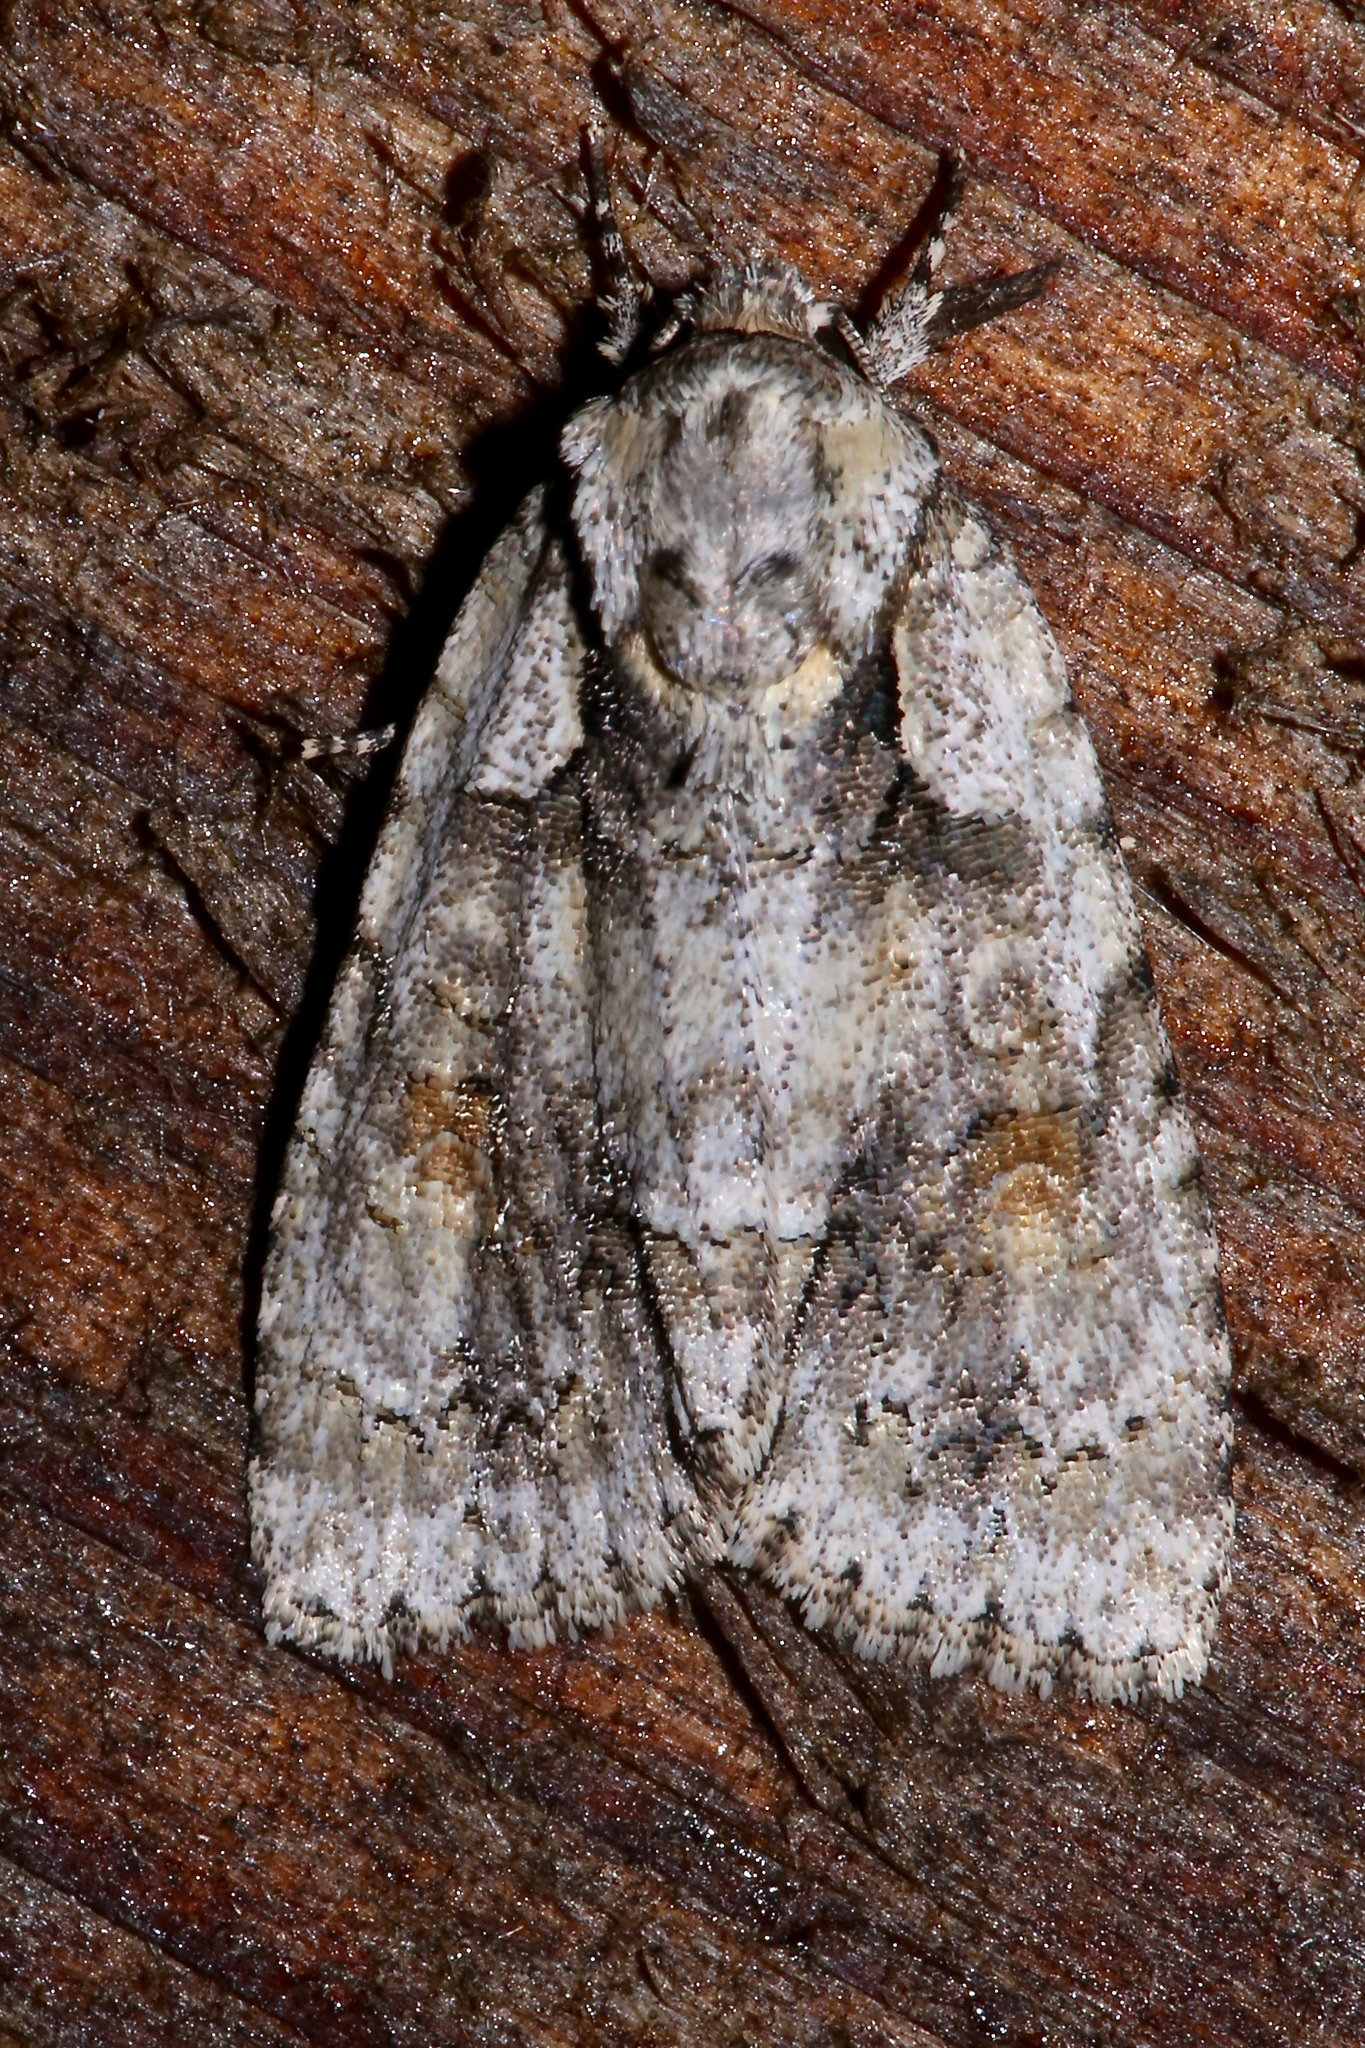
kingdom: Animalia
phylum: Arthropoda
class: Insecta
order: Lepidoptera
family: Noctuidae
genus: Acronicta
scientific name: Acronicta ovata
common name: Epauleted oak dagger
